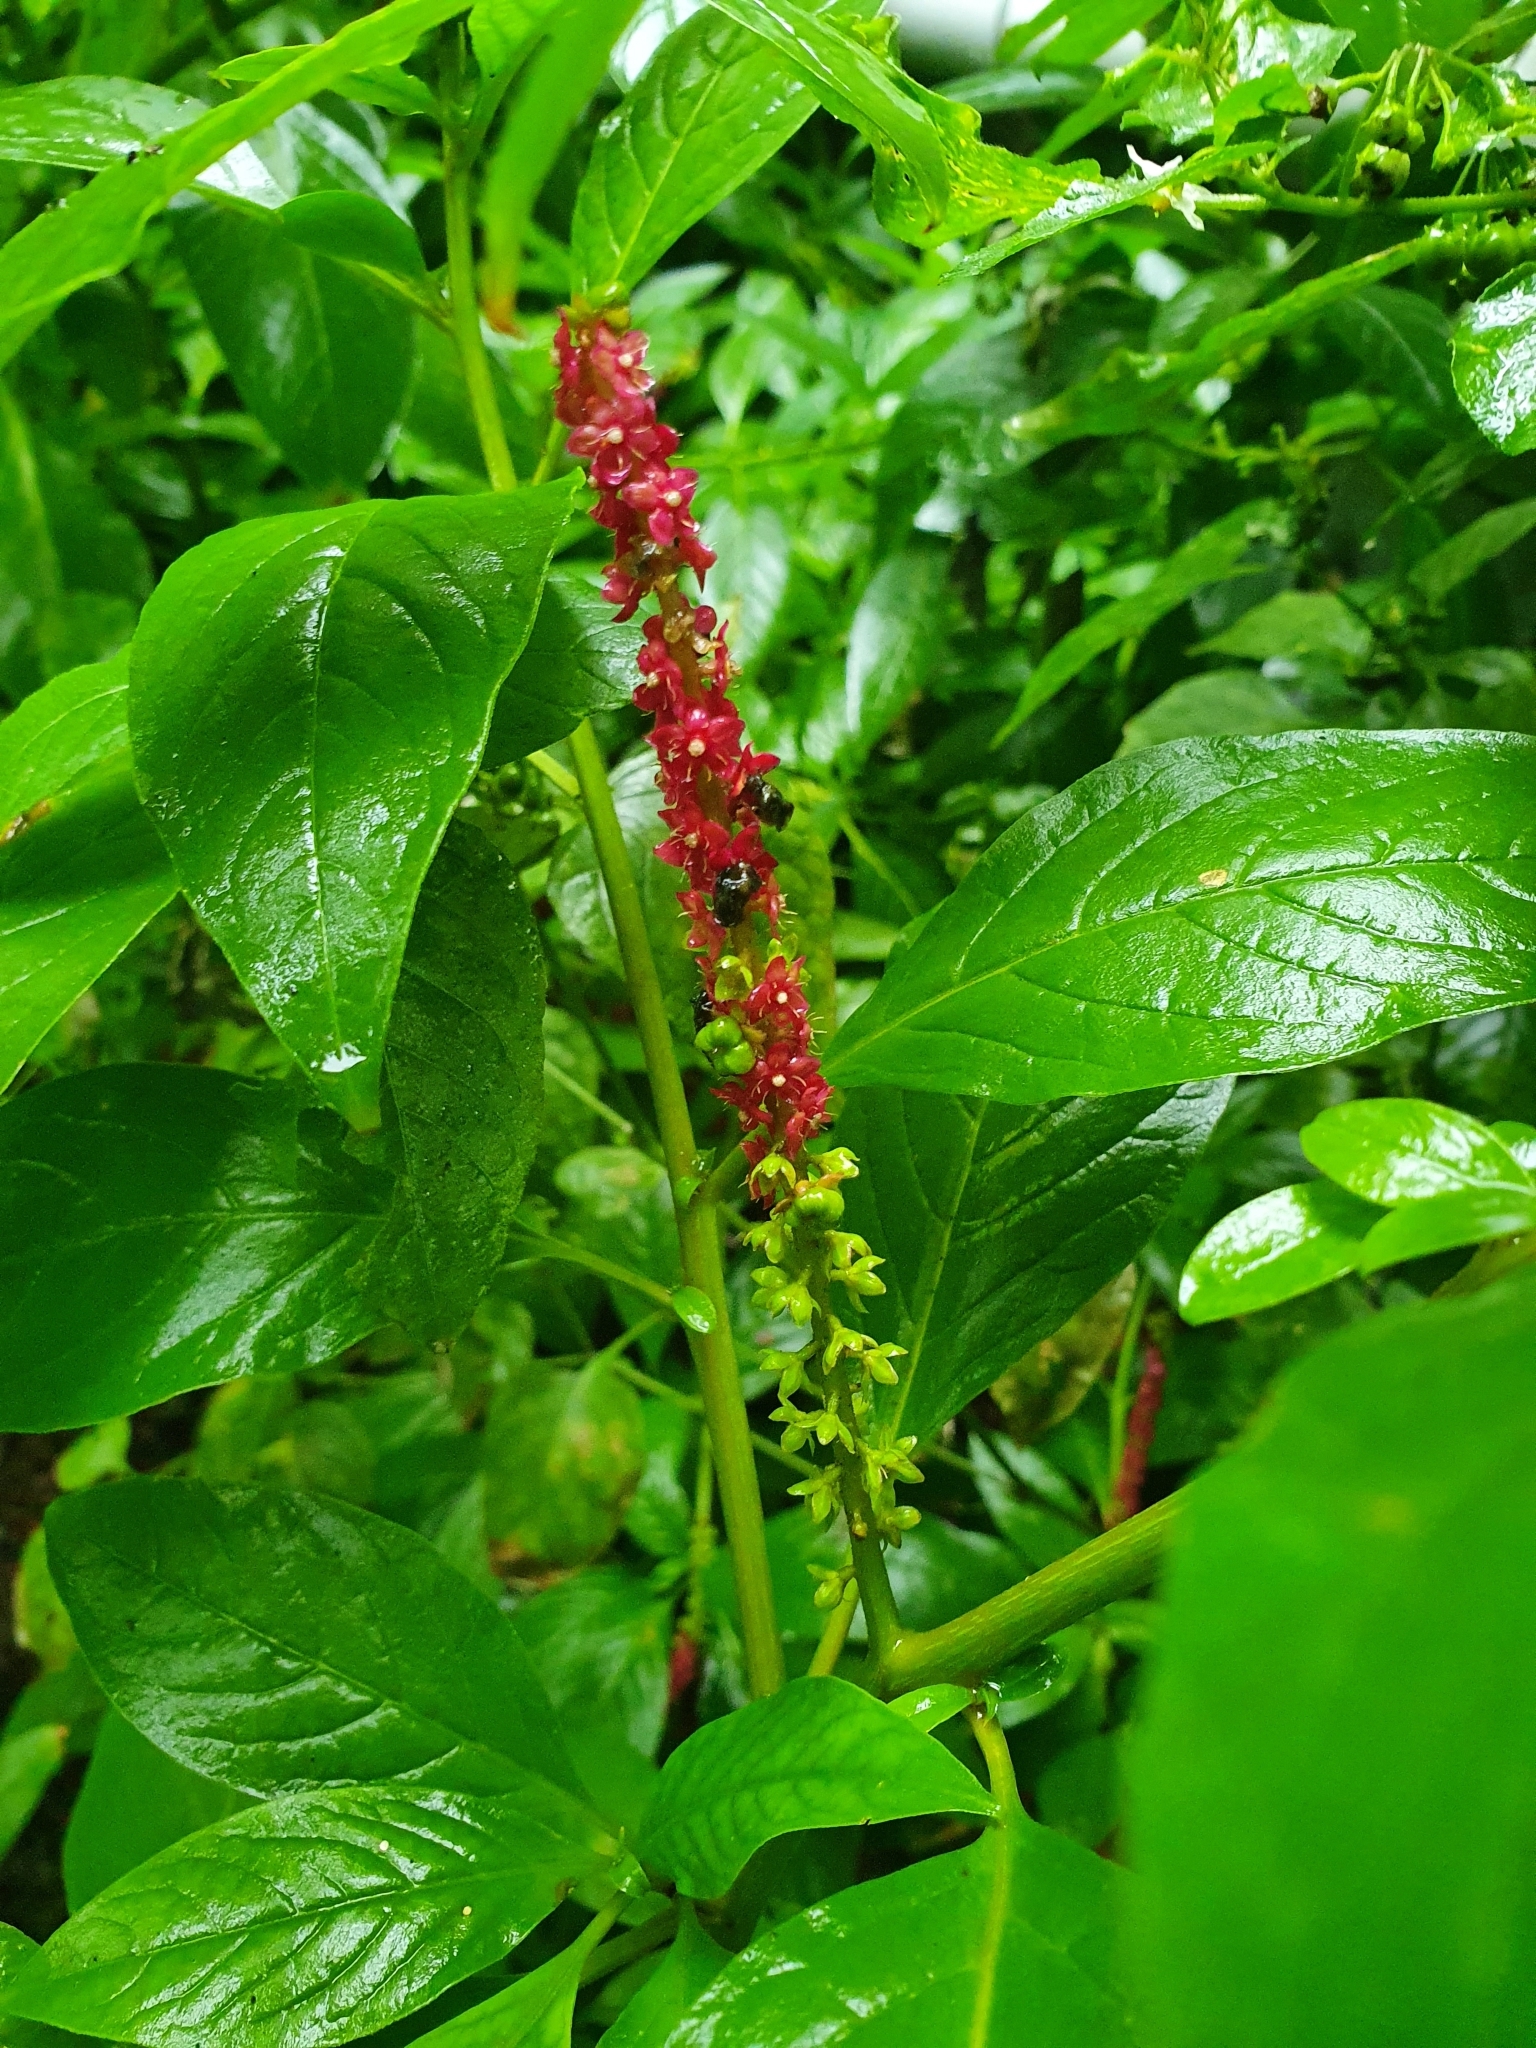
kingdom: Plantae
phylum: Tracheophyta
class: Magnoliopsida
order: Caryophyllales
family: Phytolaccaceae
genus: Phytolacca
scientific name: Phytolacca icosandra
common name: Button pokeweed
